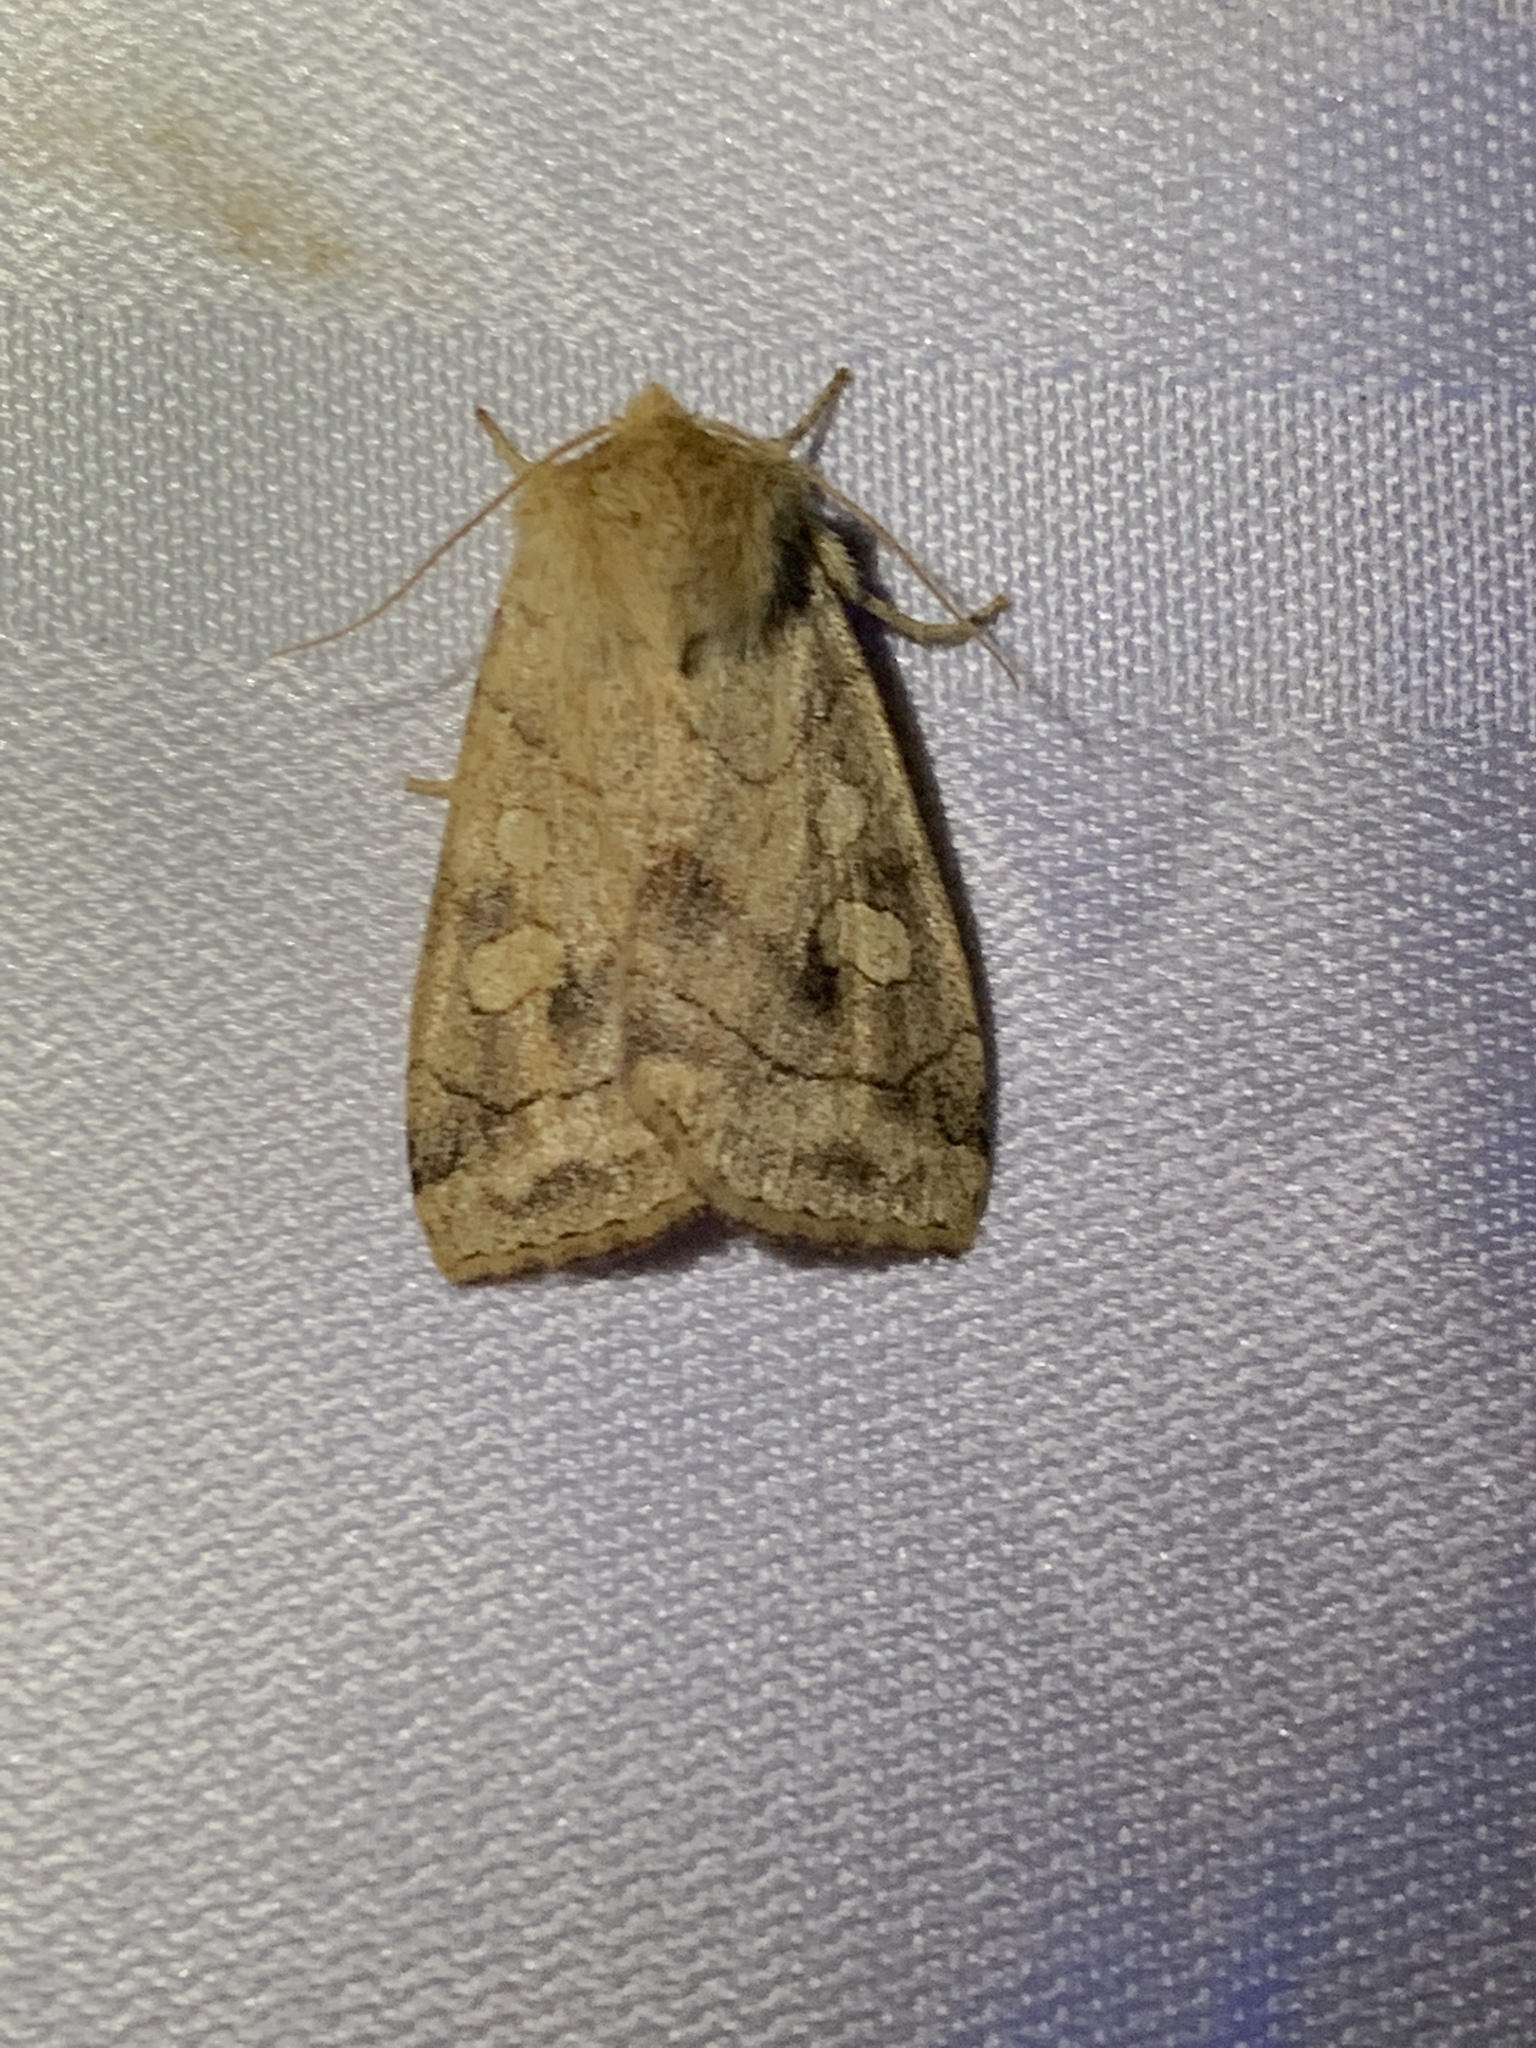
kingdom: Animalia
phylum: Arthropoda
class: Insecta
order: Lepidoptera
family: Noctuidae
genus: Enargia
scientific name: Enargia decolor
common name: Aspen twoleaf tier moth
